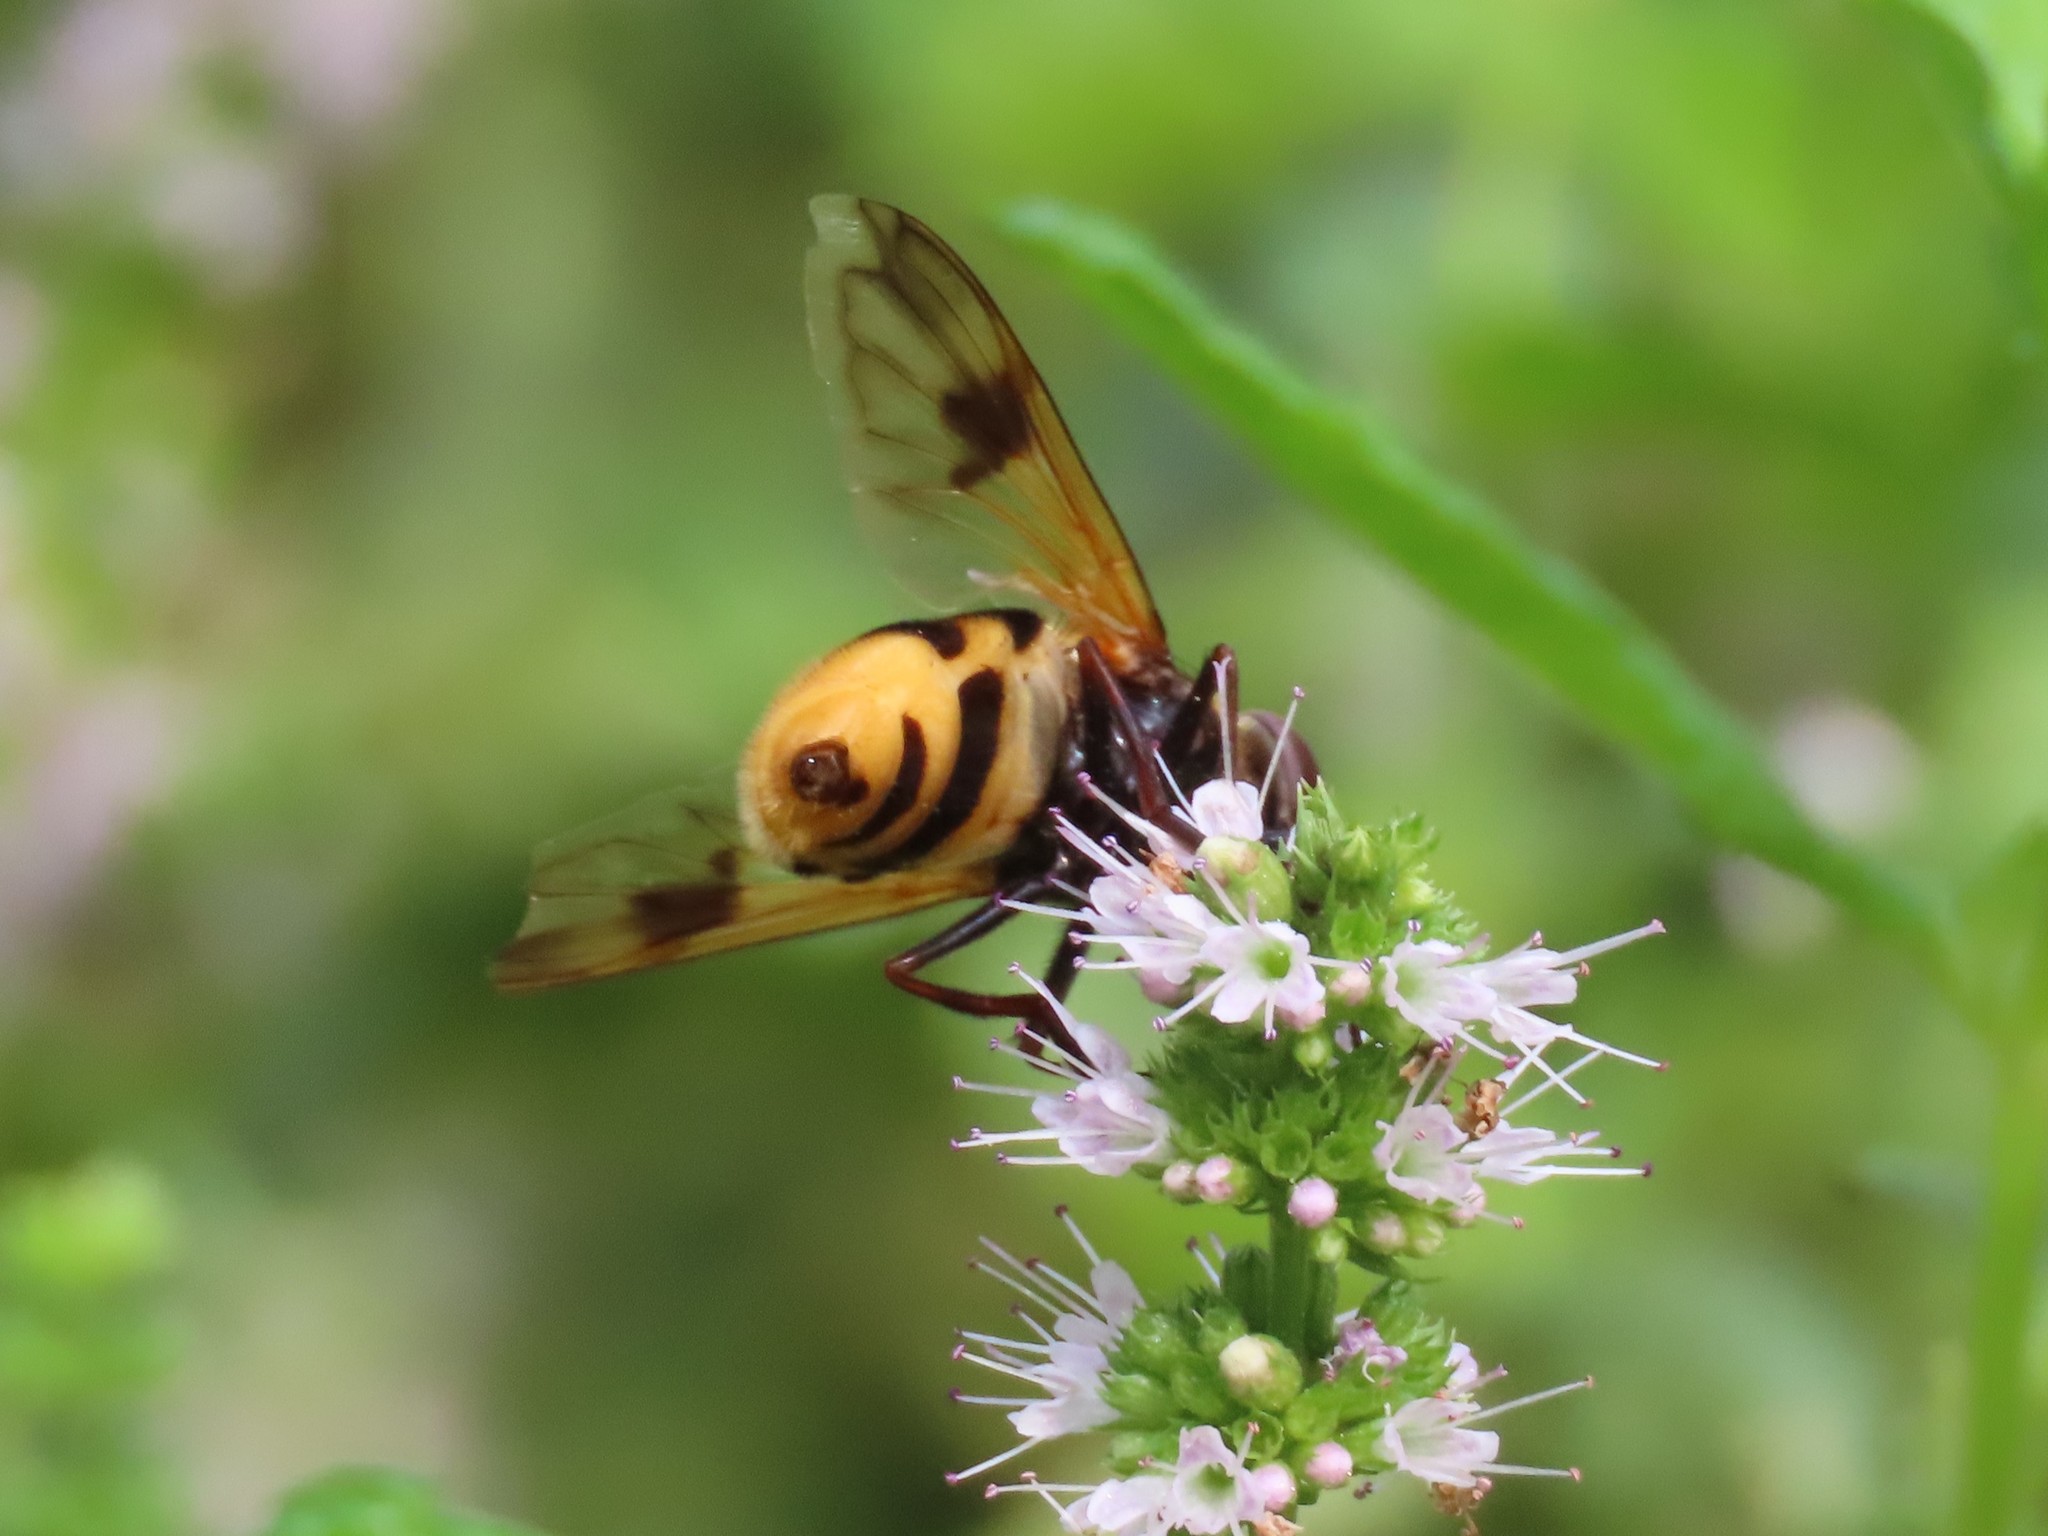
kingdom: Animalia
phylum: Arthropoda
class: Insecta
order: Diptera
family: Syrphidae
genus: Volucella
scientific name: Volucella elegans
